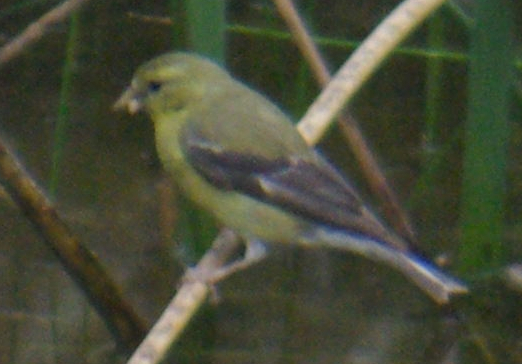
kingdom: Animalia
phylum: Chordata
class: Aves
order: Passeriformes
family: Fringillidae
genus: Spinus
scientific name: Spinus tristis
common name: American goldfinch
